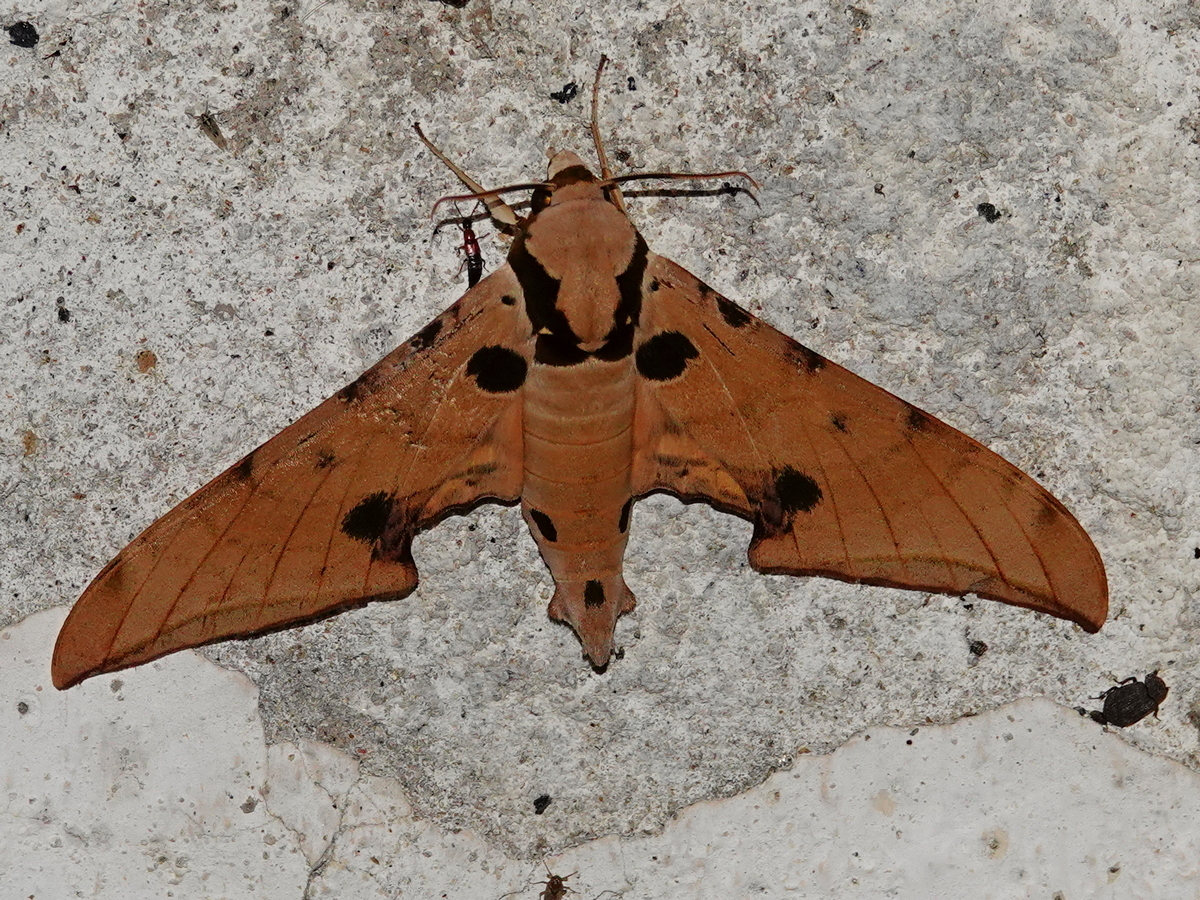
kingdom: Animalia
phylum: Arthropoda
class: Insecta
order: Lepidoptera
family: Sphingidae
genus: Ambulyx
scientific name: Ambulyx ochracea
